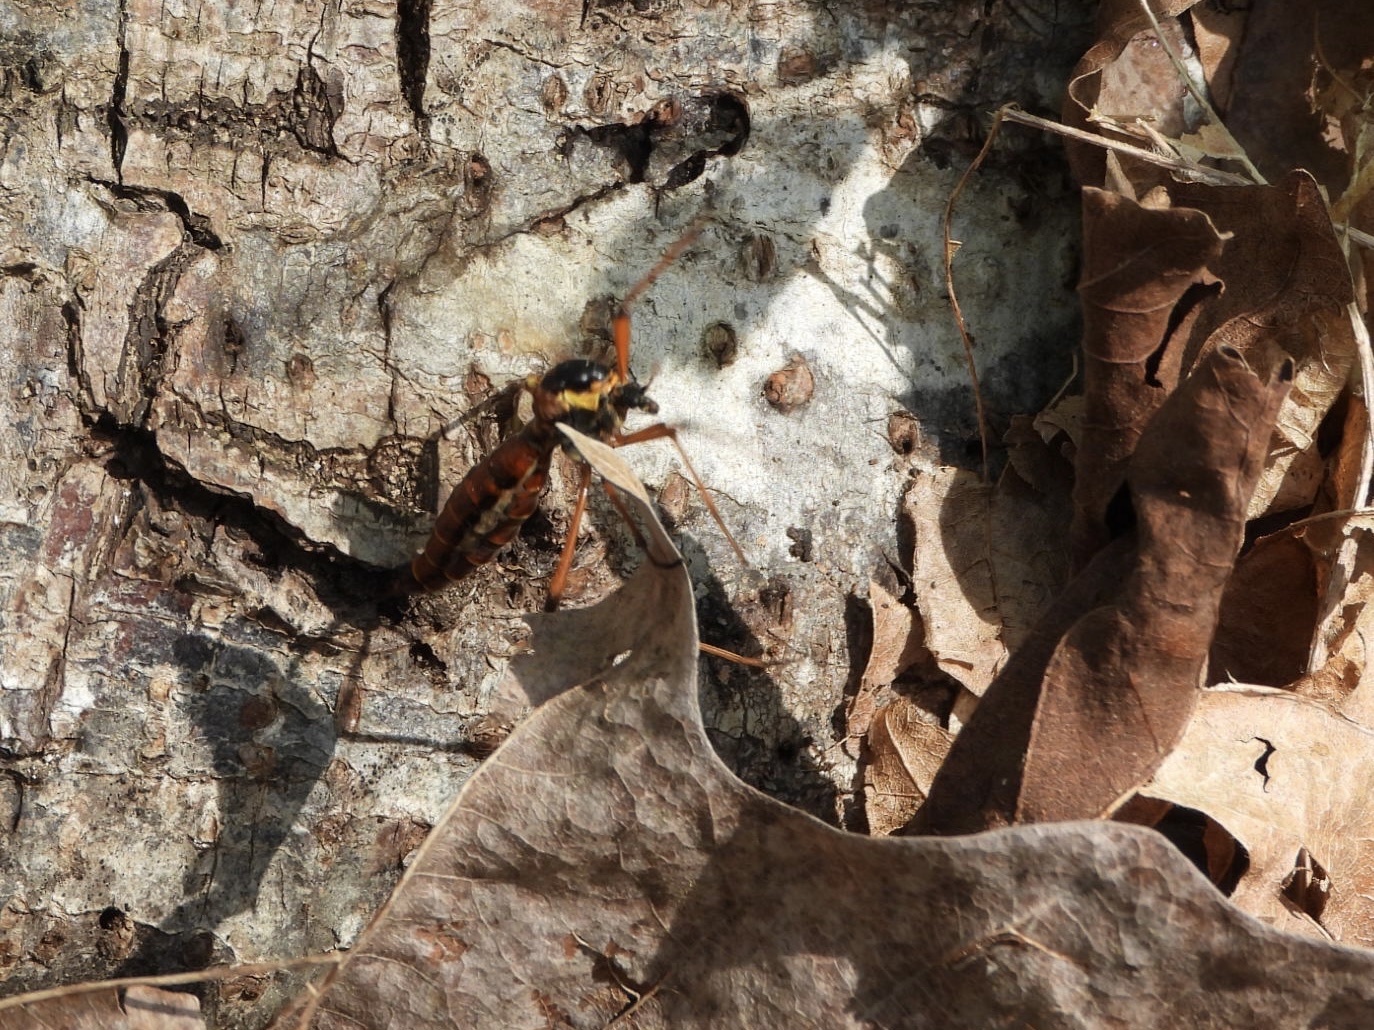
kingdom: Animalia
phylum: Arthropoda
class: Insecta
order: Diptera
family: Tipulidae
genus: Phoroctenia
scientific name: Phoroctenia vittata
